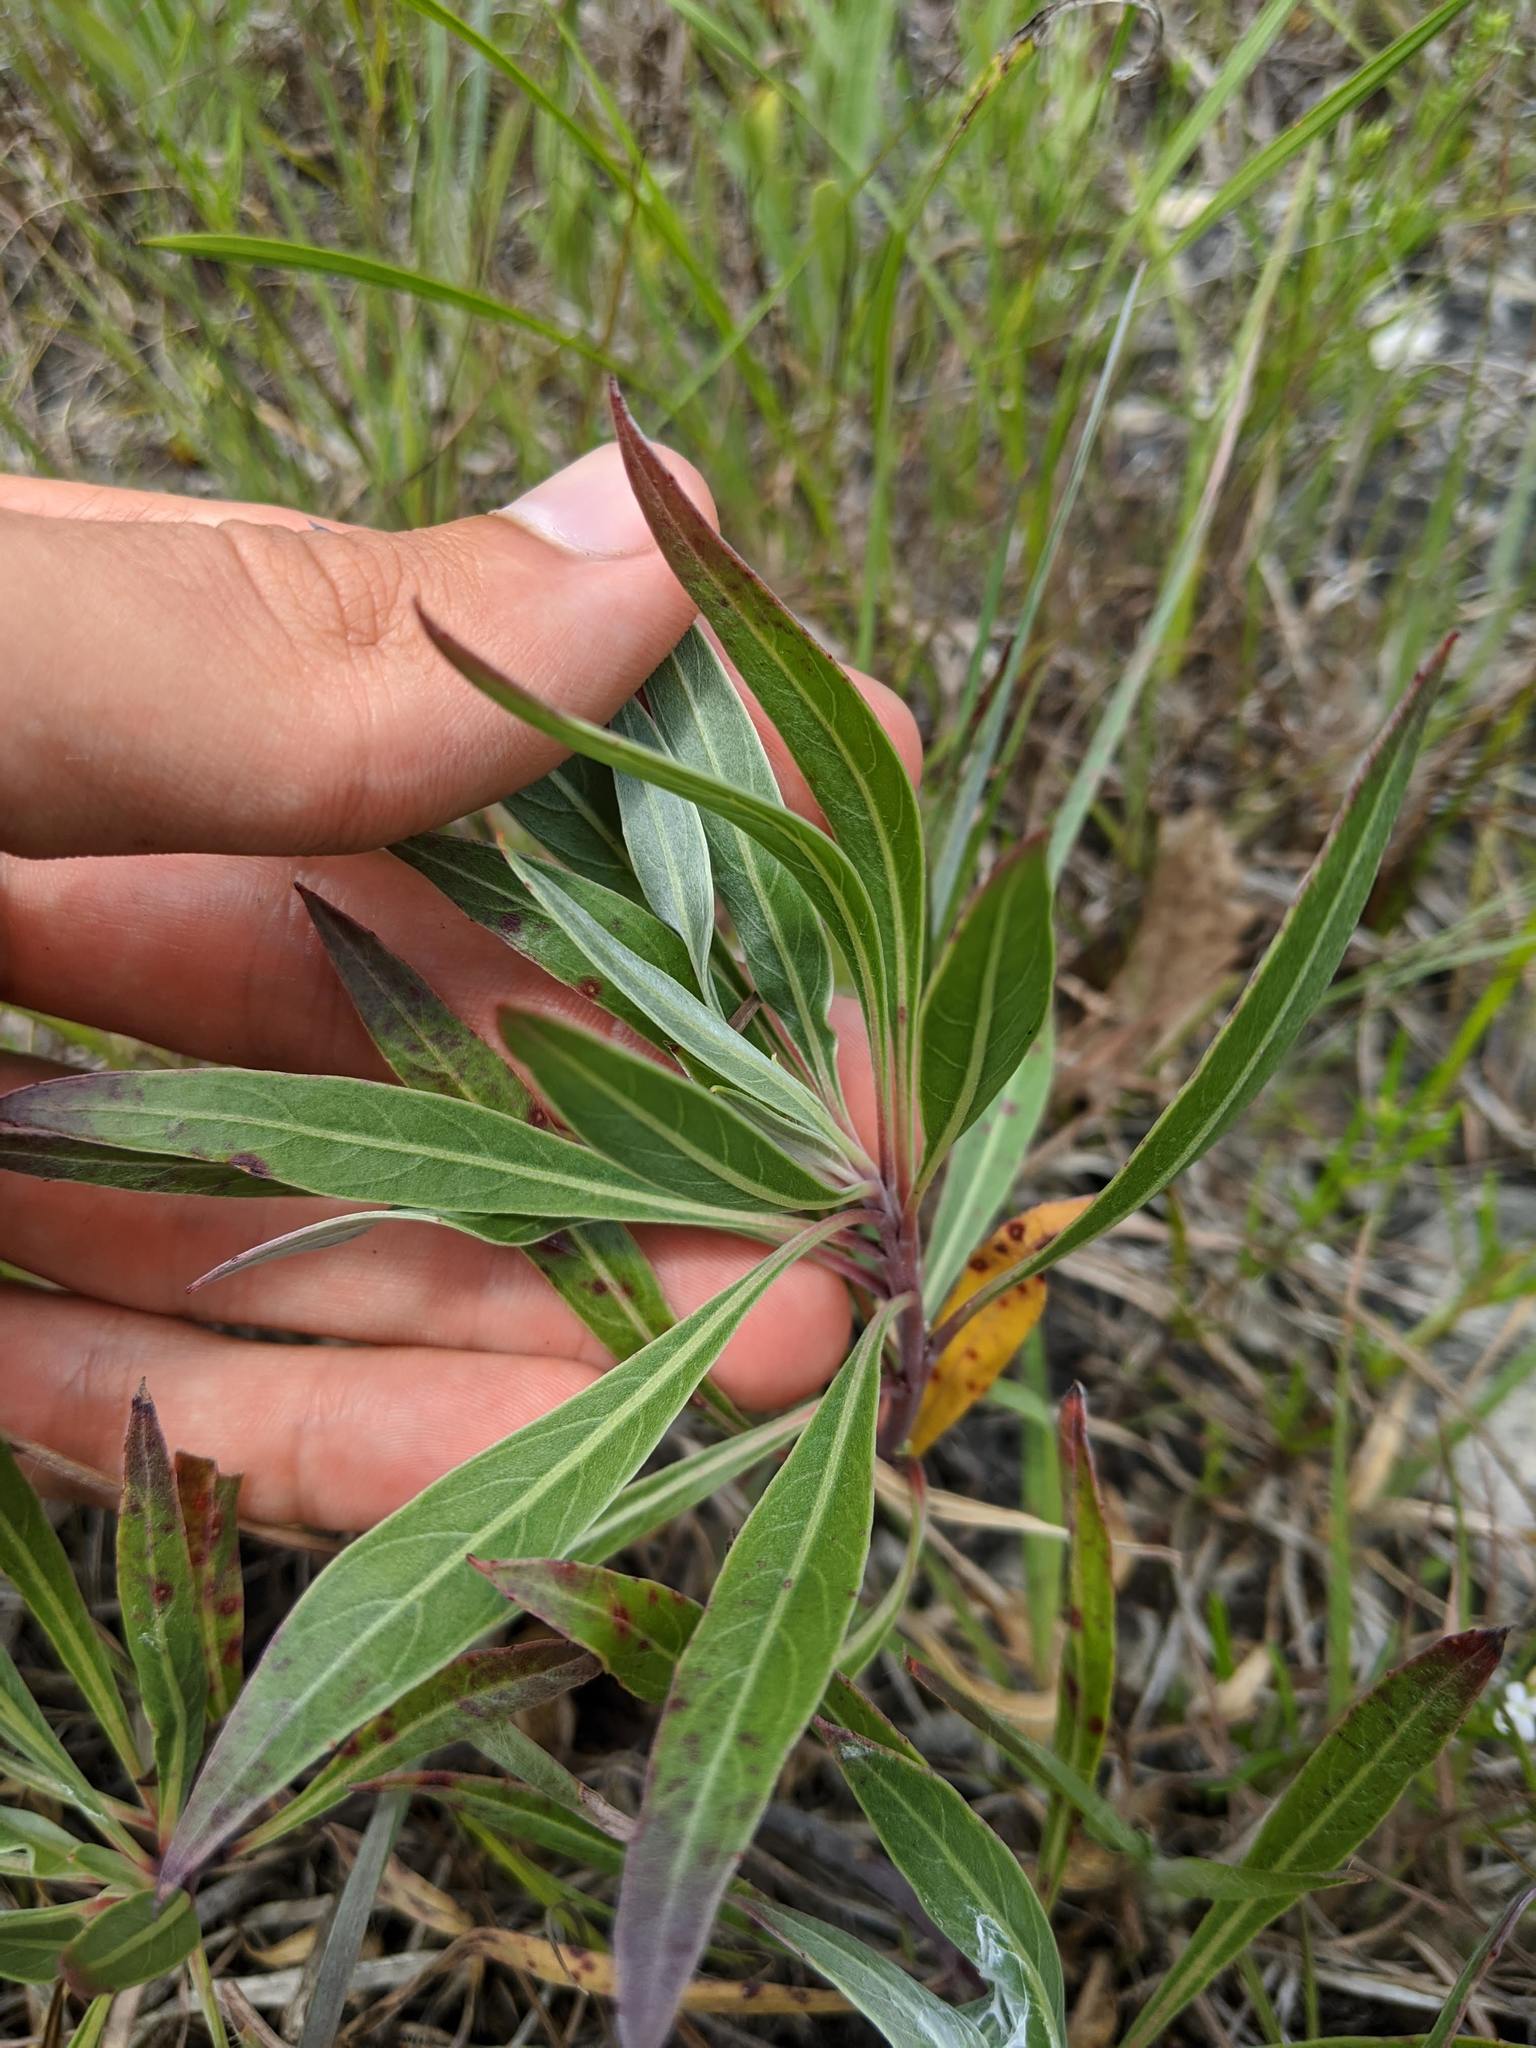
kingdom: Plantae
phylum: Tracheophyta
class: Magnoliopsida
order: Myrtales
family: Onagraceae
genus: Oenothera
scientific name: Oenothera macrocarpa
